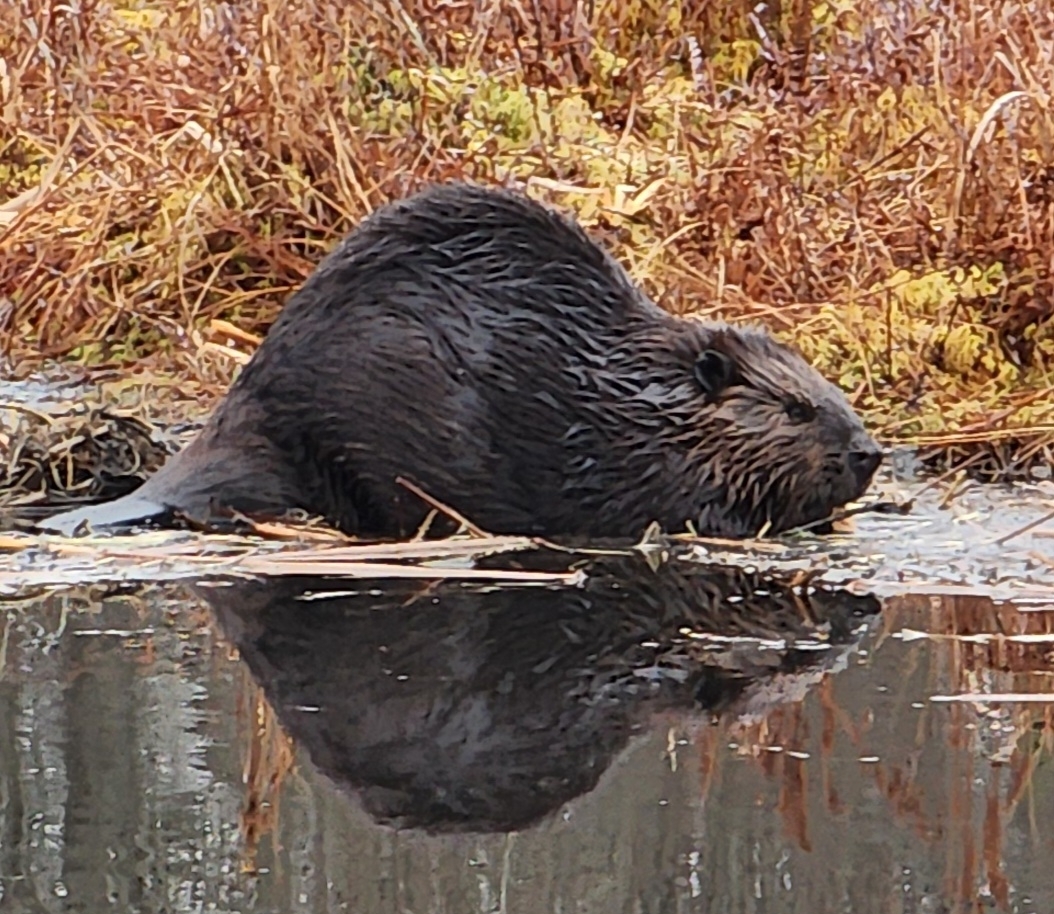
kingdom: Animalia
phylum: Chordata
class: Mammalia
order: Rodentia
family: Castoridae
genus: Castor
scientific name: Castor canadensis
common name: American beaver
